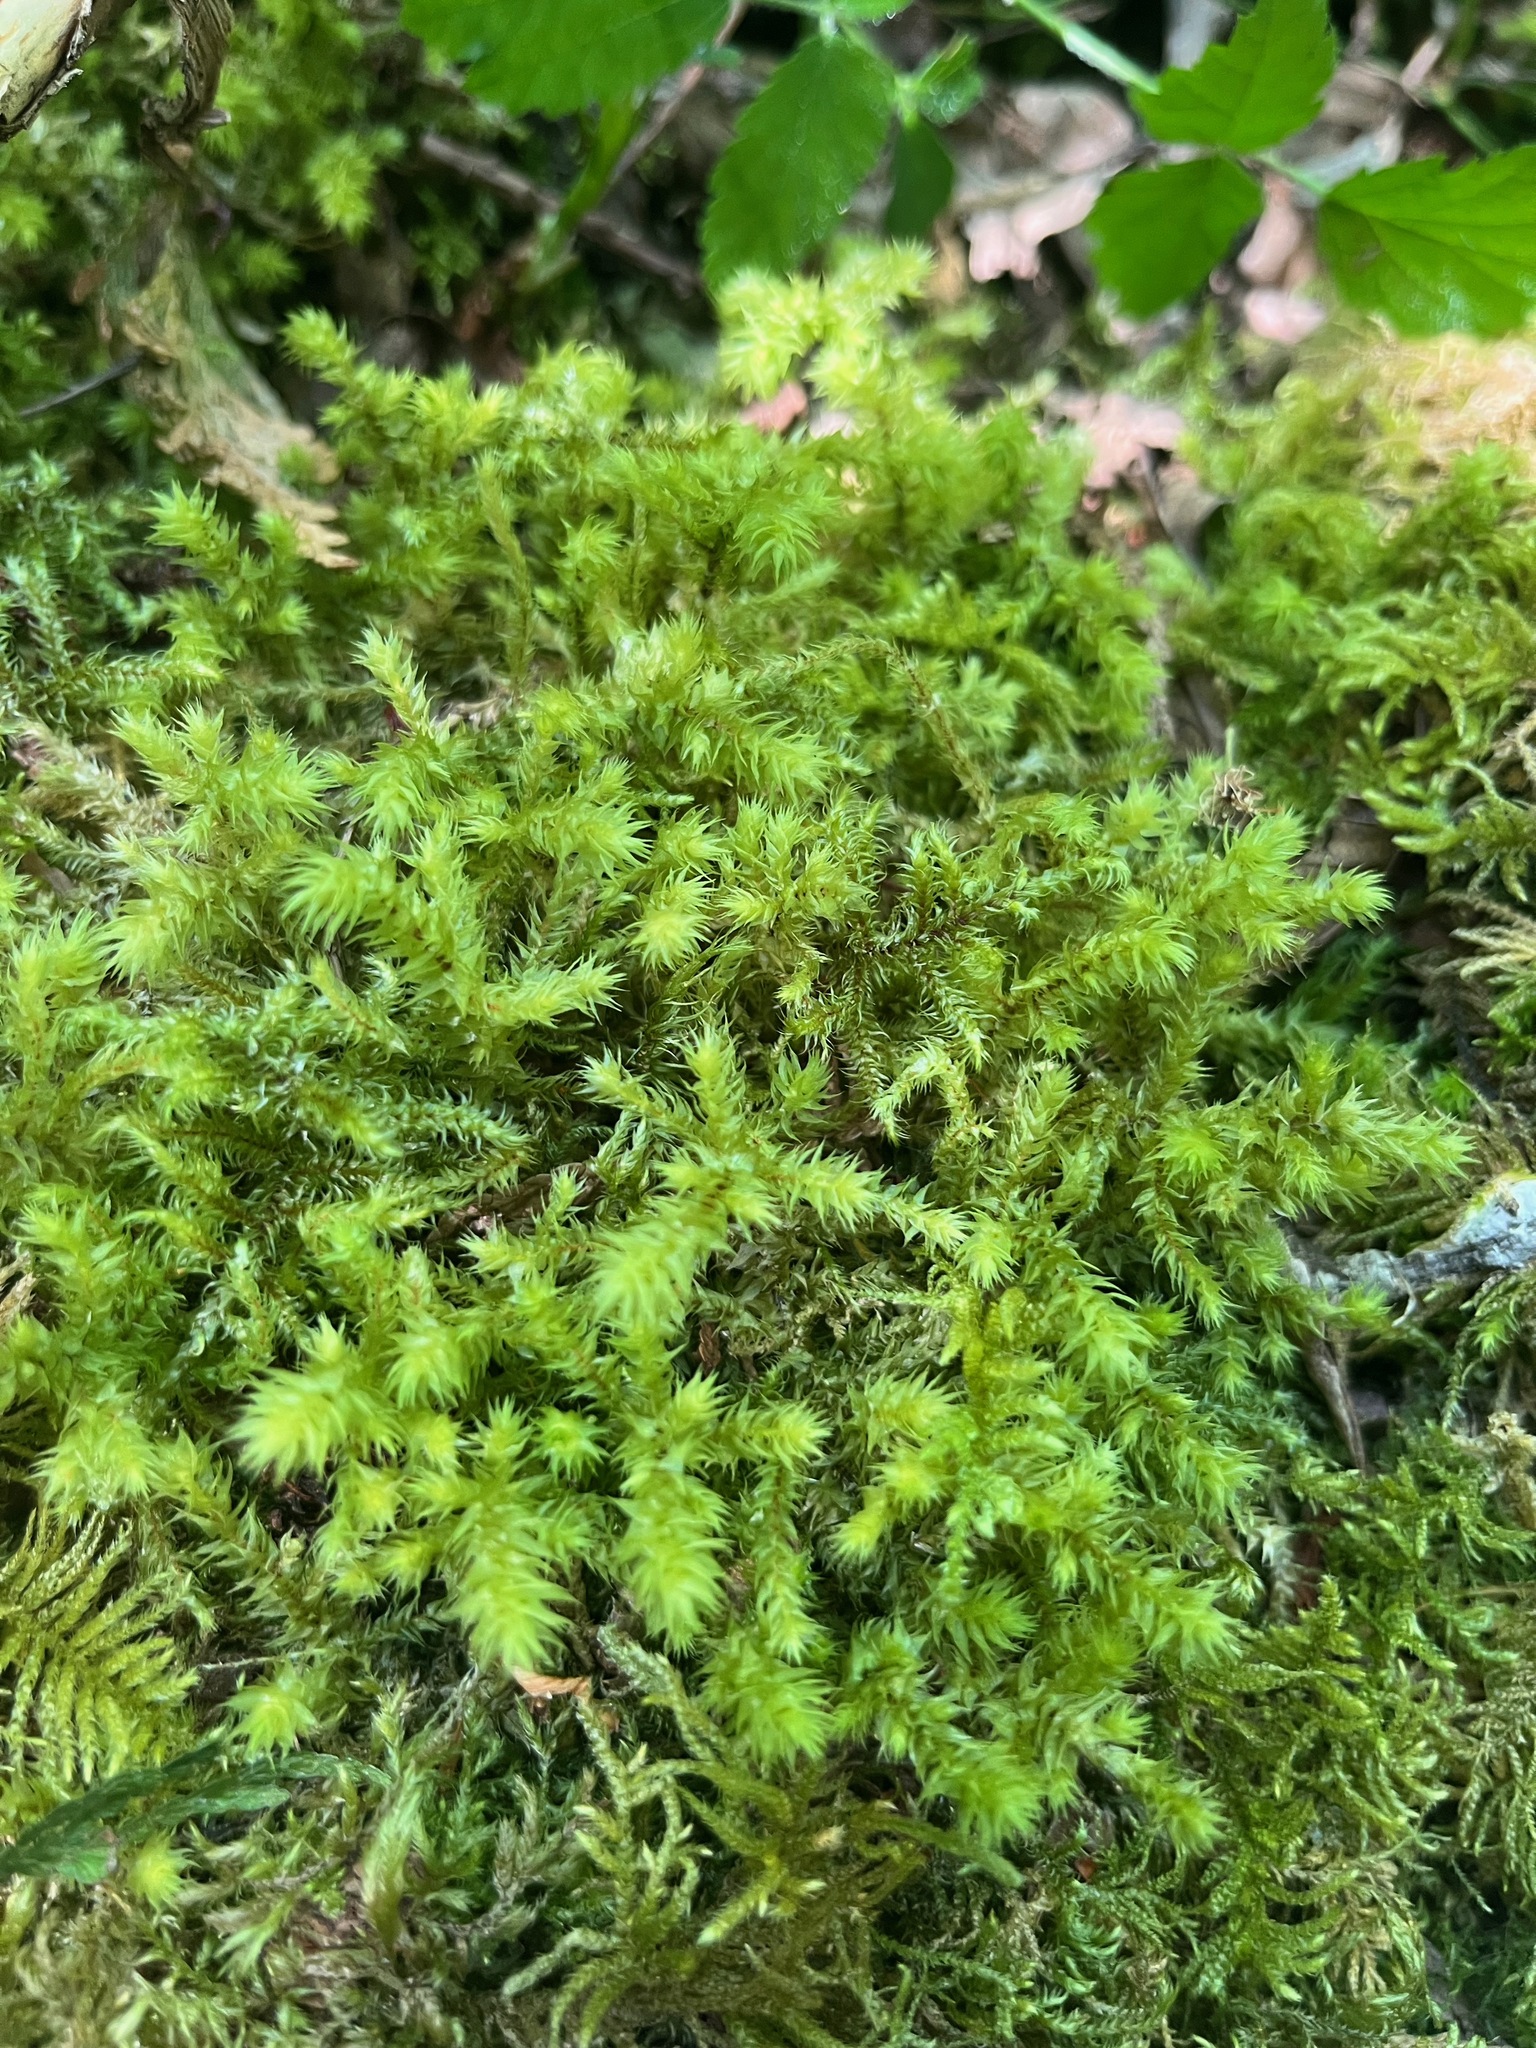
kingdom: Plantae
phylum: Bryophyta
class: Bryopsida
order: Hypnales
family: Hylocomiaceae
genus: Hylocomiadelphus
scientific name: Hylocomiadelphus triquetrus
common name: Rough goose neck moss
